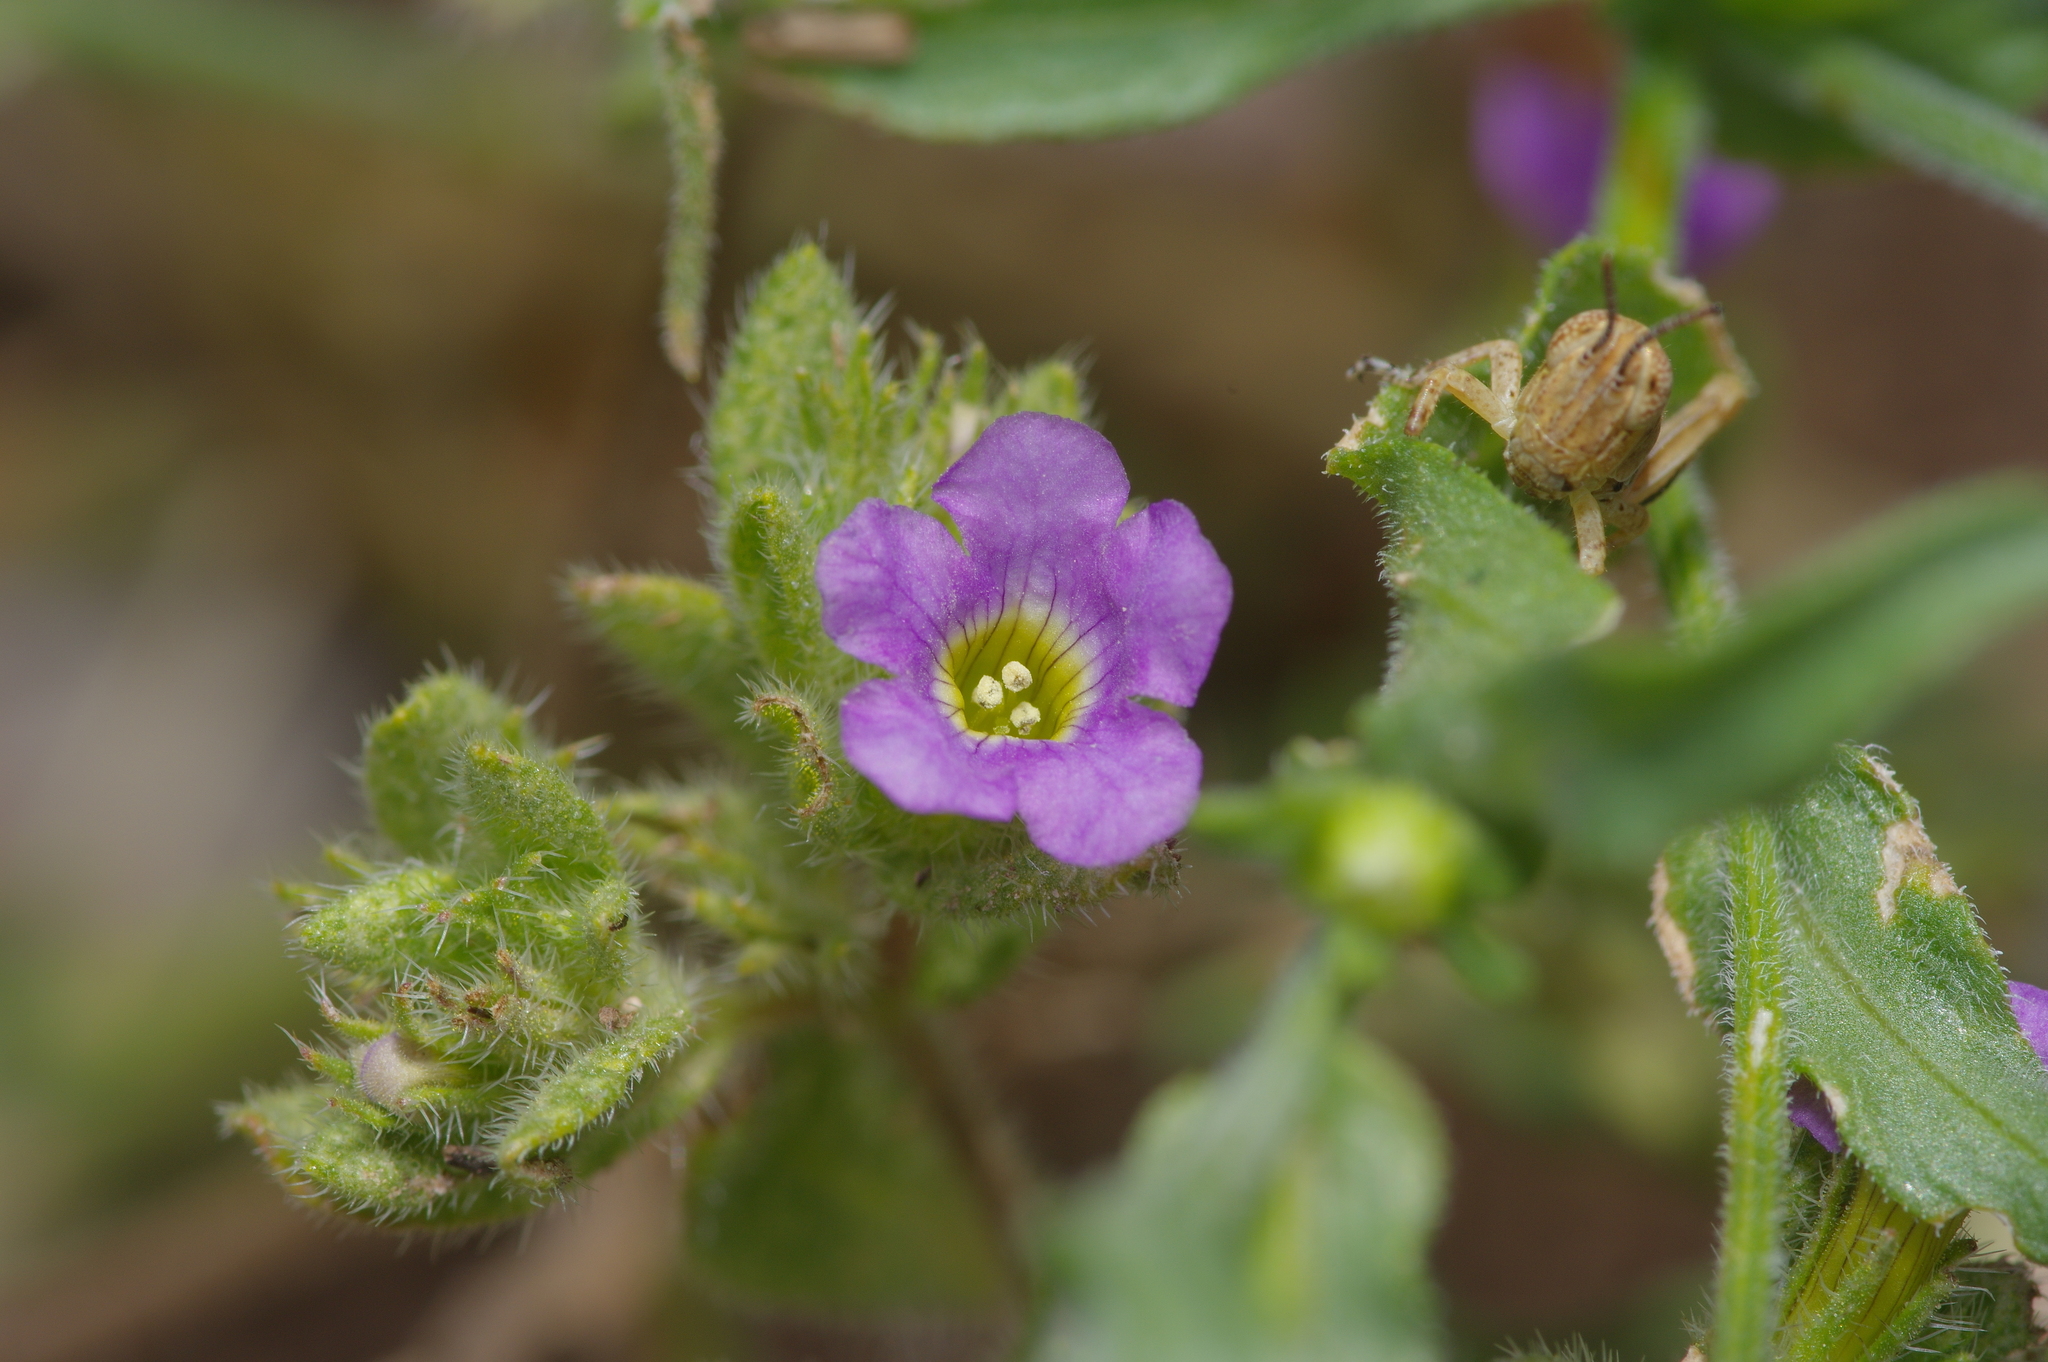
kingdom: Plantae
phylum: Tracheophyta
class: Magnoliopsida
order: Boraginales
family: Namaceae
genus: Nama
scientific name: Nama hispida
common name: Bristly nama
